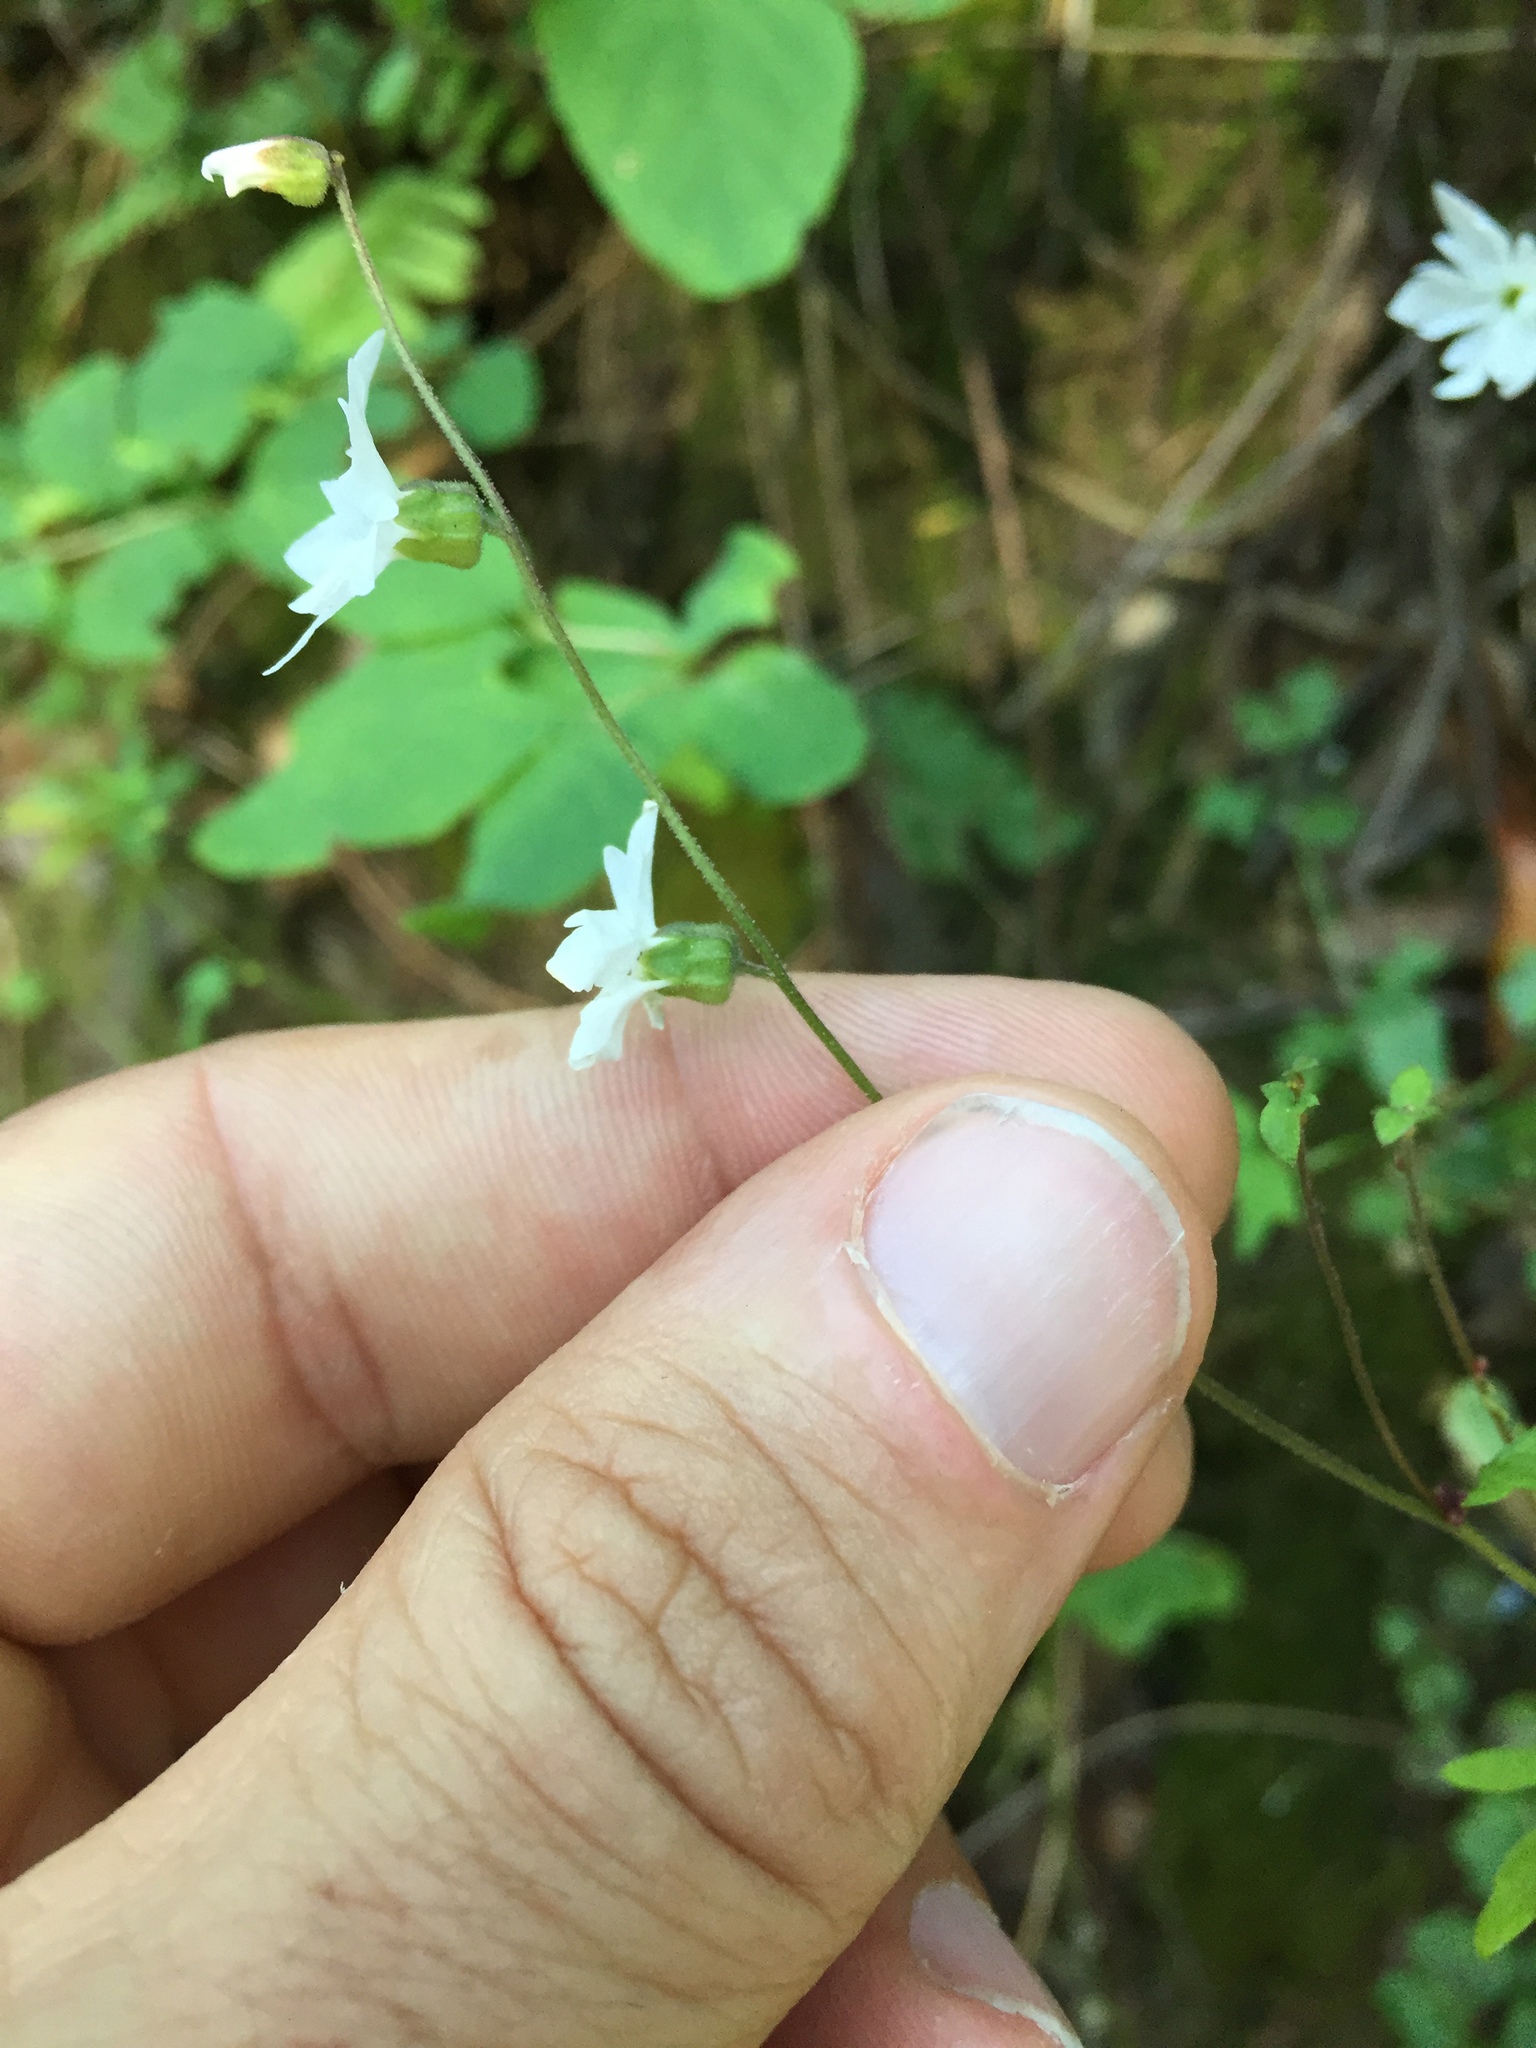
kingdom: Plantae
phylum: Tracheophyta
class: Magnoliopsida
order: Saxifragales
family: Saxifragaceae
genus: Lithophragma
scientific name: Lithophragma heterophyllum
